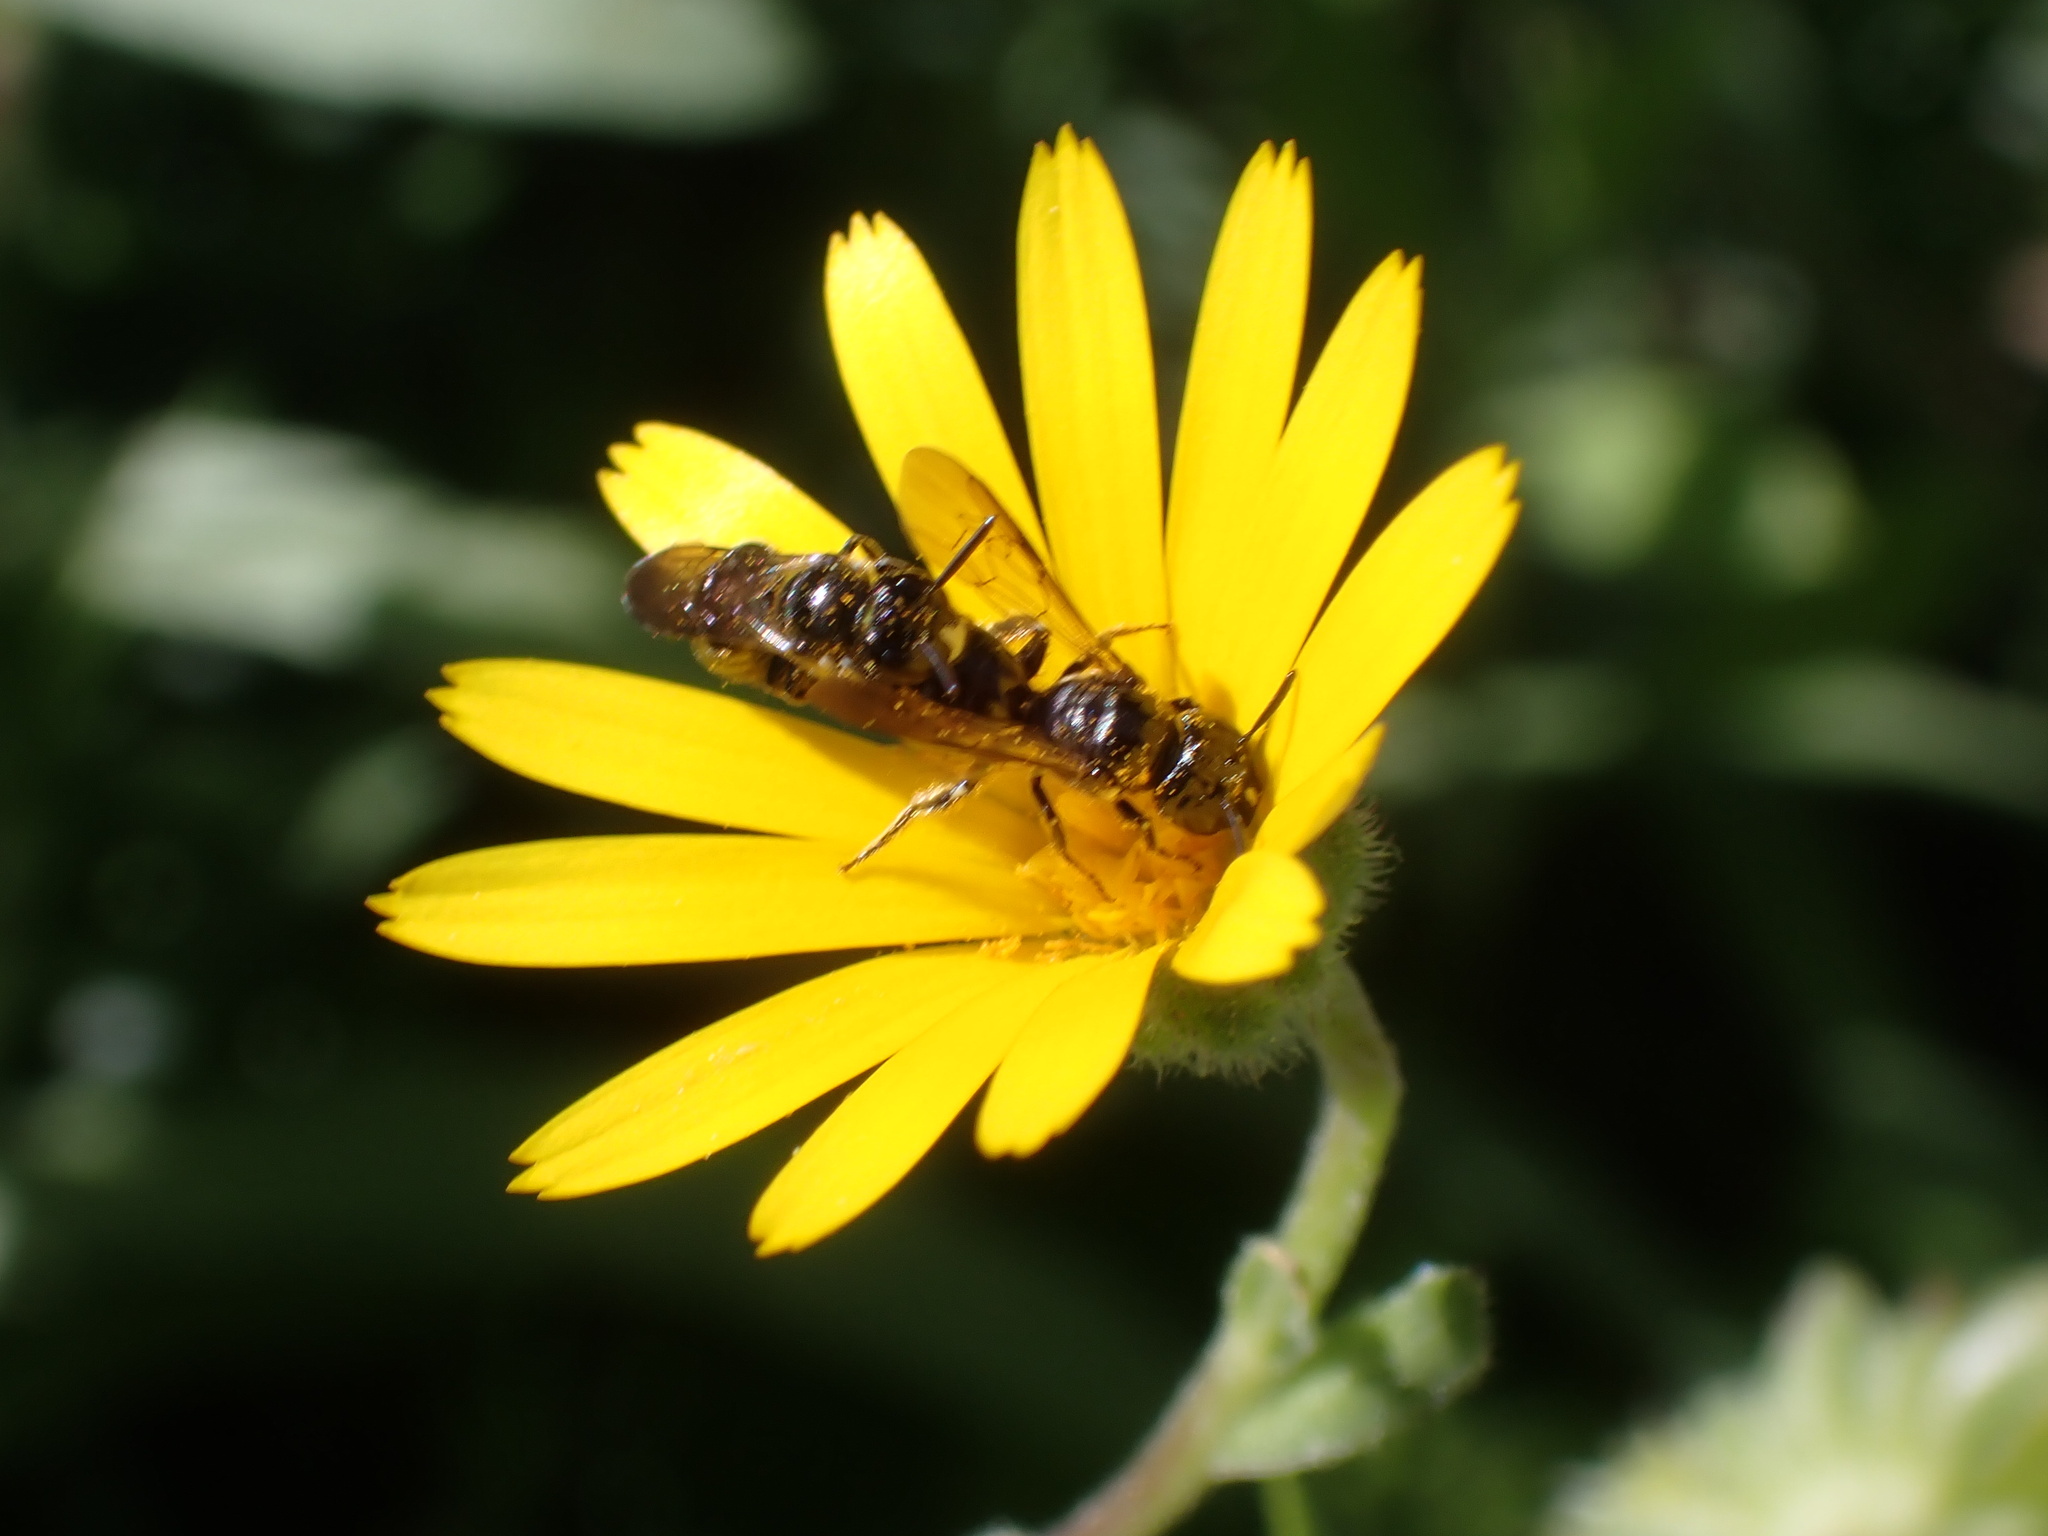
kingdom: Animalia
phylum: Arthropoda
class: Insecta
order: Hymenoptera
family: Apidae
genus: Ceratina
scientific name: Ceratina cucurbitina
